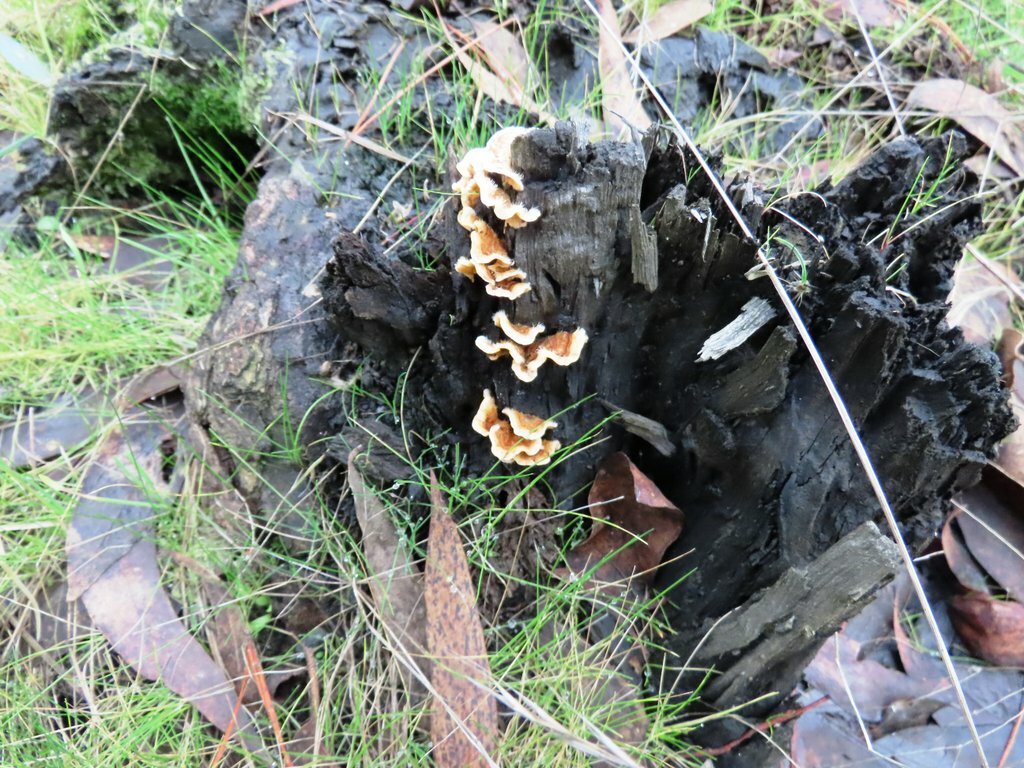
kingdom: Fungi
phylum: Basidiomycota
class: Agaricomycetes
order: Russulales
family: Stereaceae
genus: Stereum
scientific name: Stereum hirsutum
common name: Hairy curtain crust
